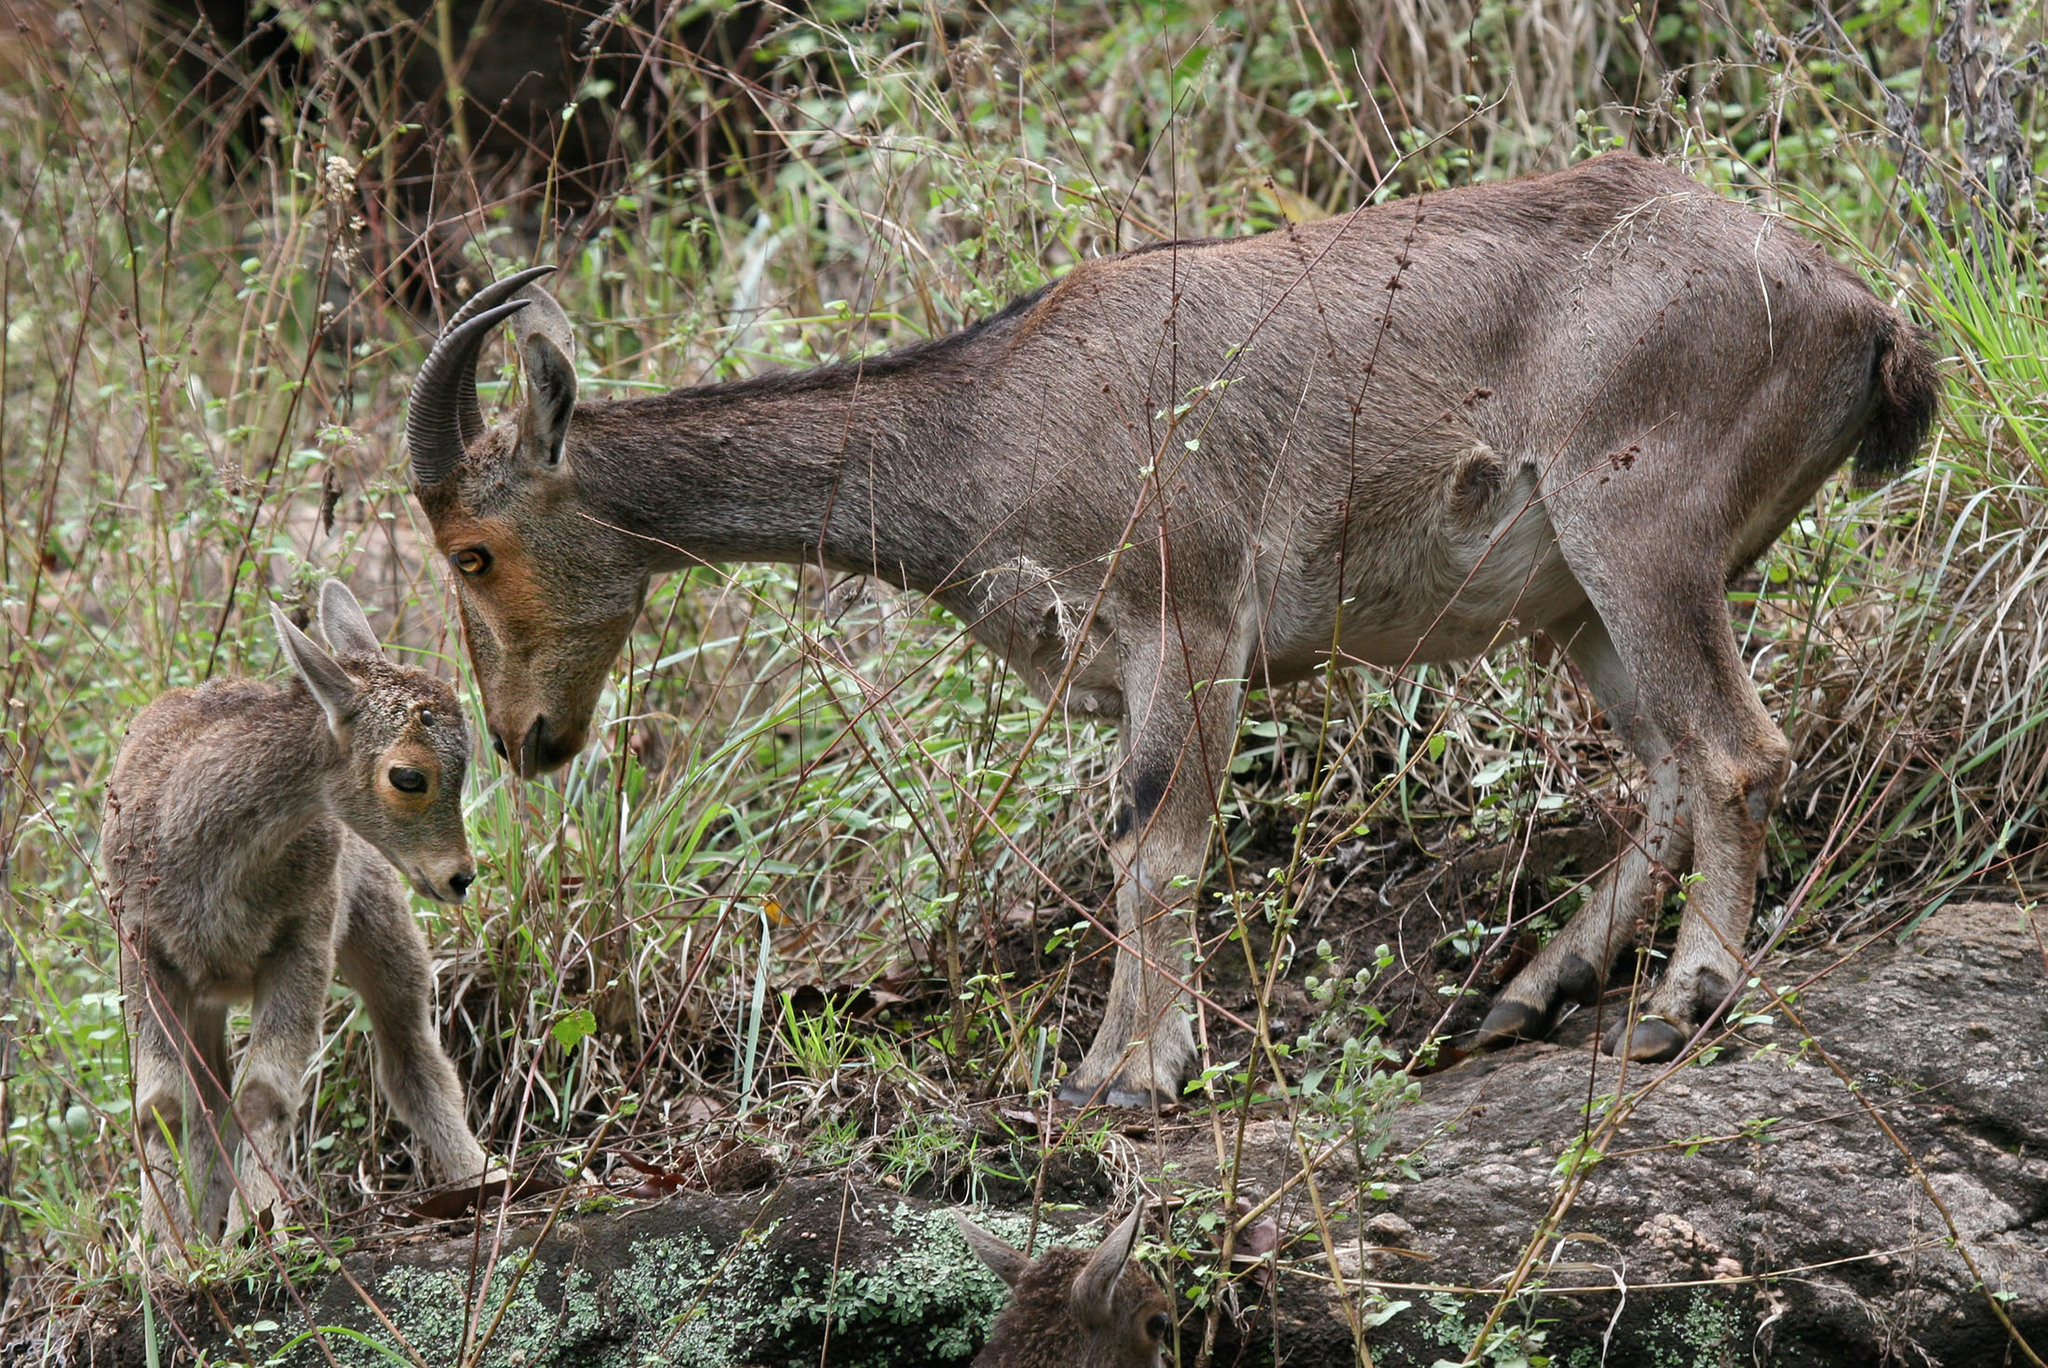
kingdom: Animalia
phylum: Chordata
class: Mammalia
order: Artiodactyla
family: Bovidae
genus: Hemitragus
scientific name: Hemitragus hylocrius
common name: Nilgiri tahr
